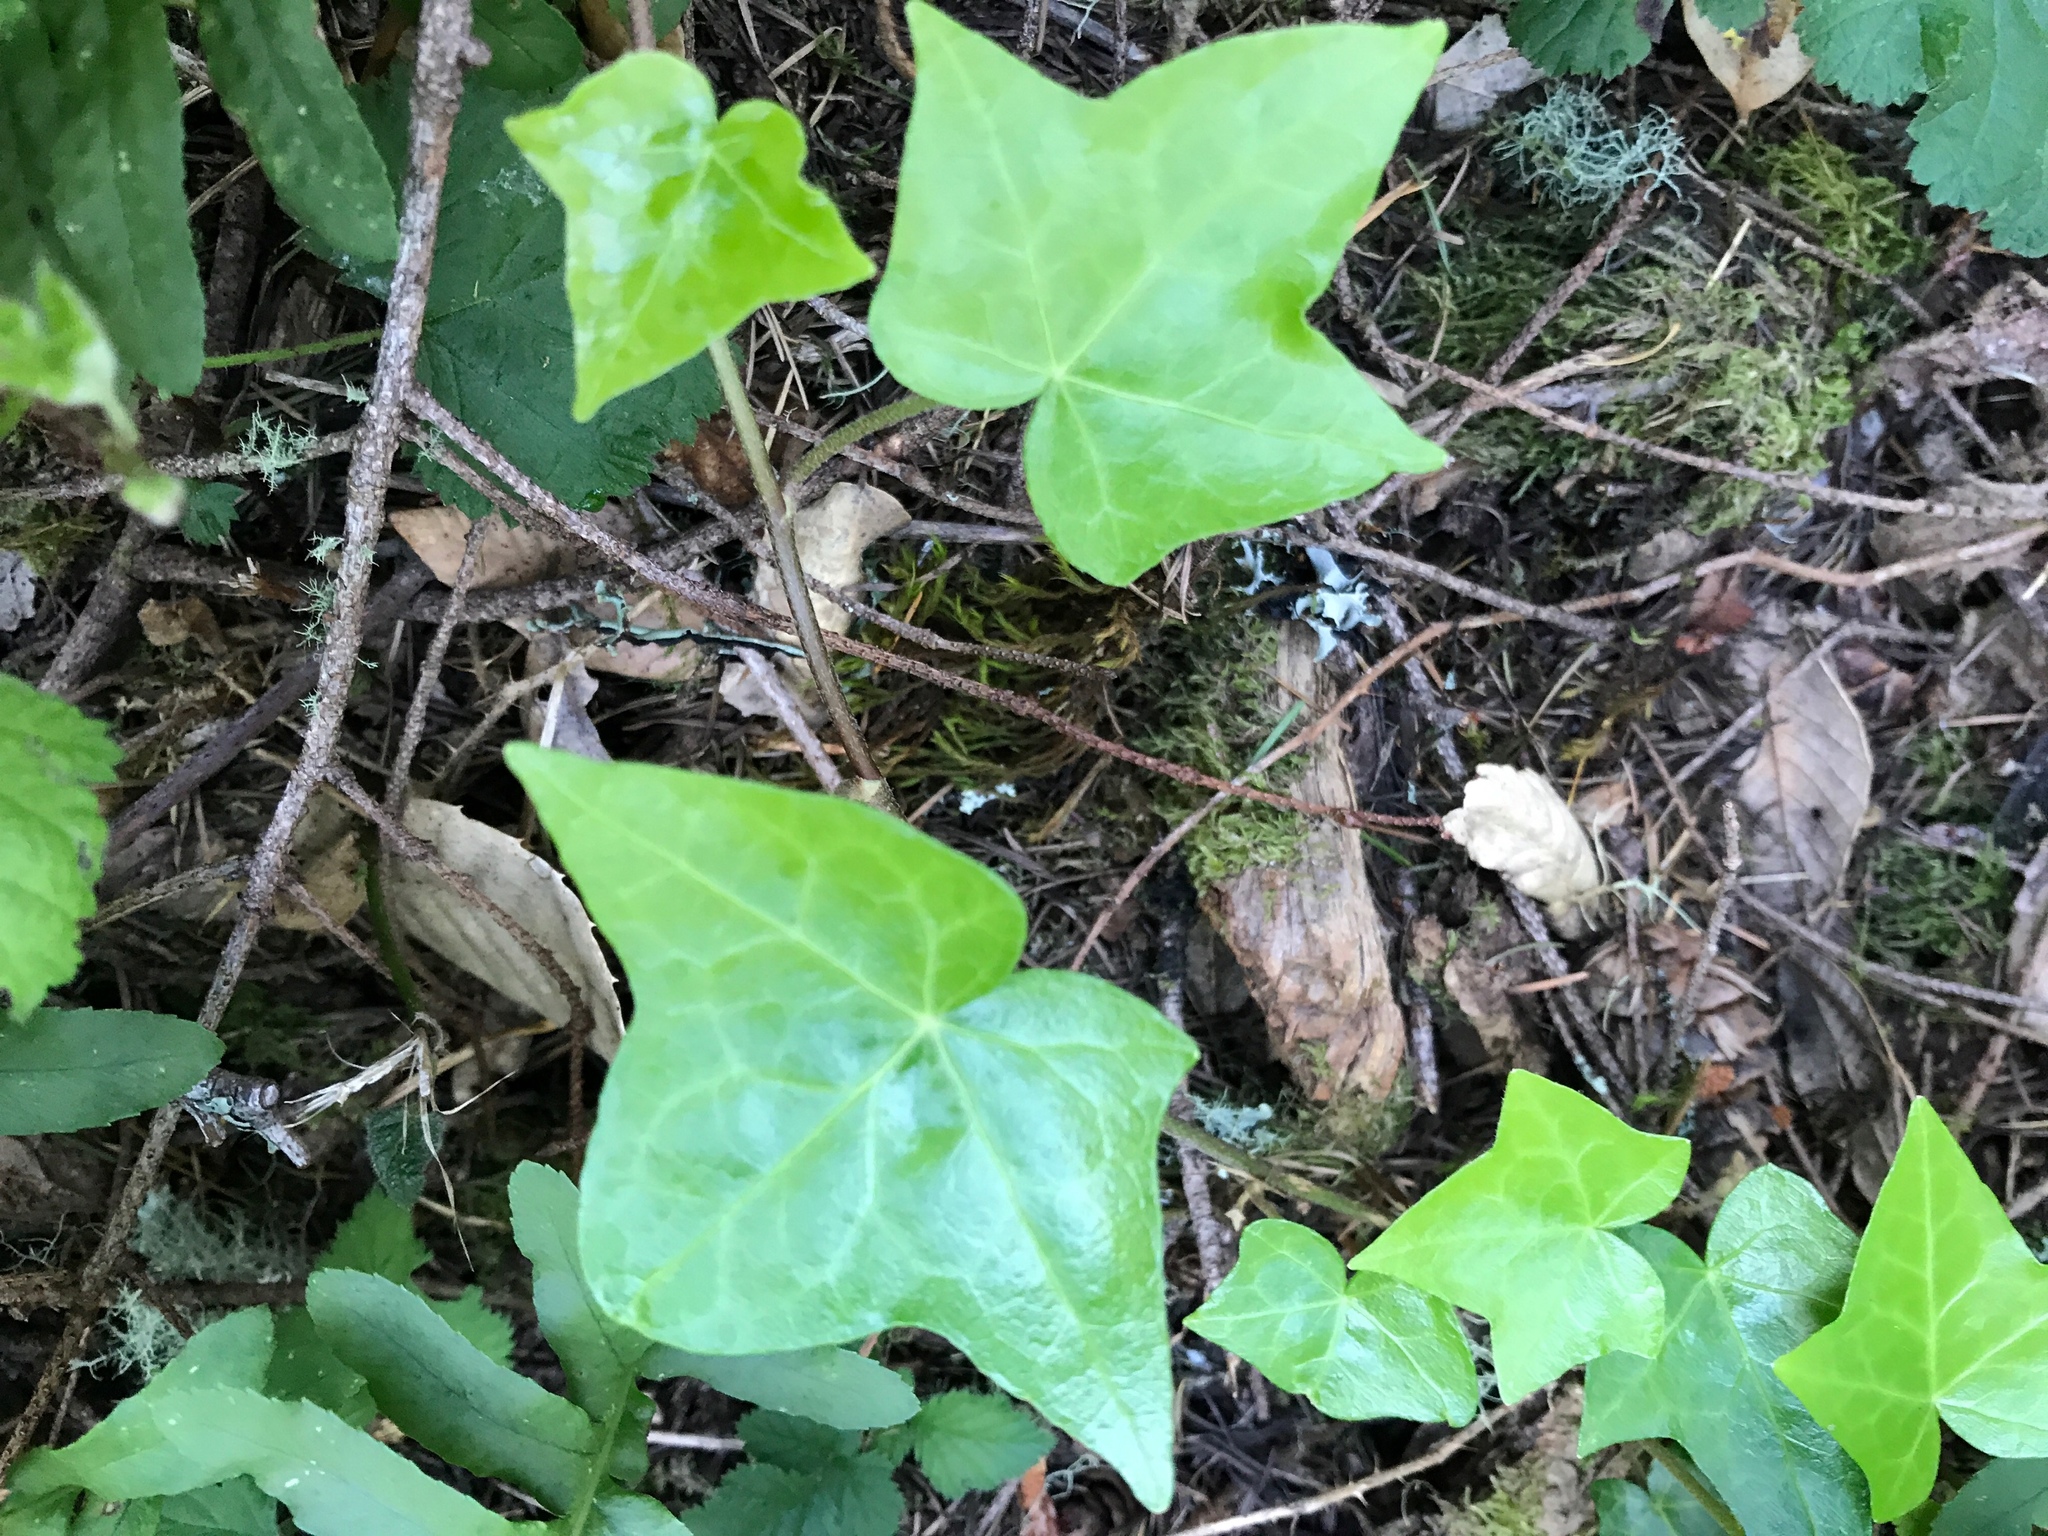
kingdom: Plantae
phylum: Tracheophyta
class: Magnoliopsida
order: Apiales
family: Araliaceae
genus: Hedera
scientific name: Hedera helix
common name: Ivy
